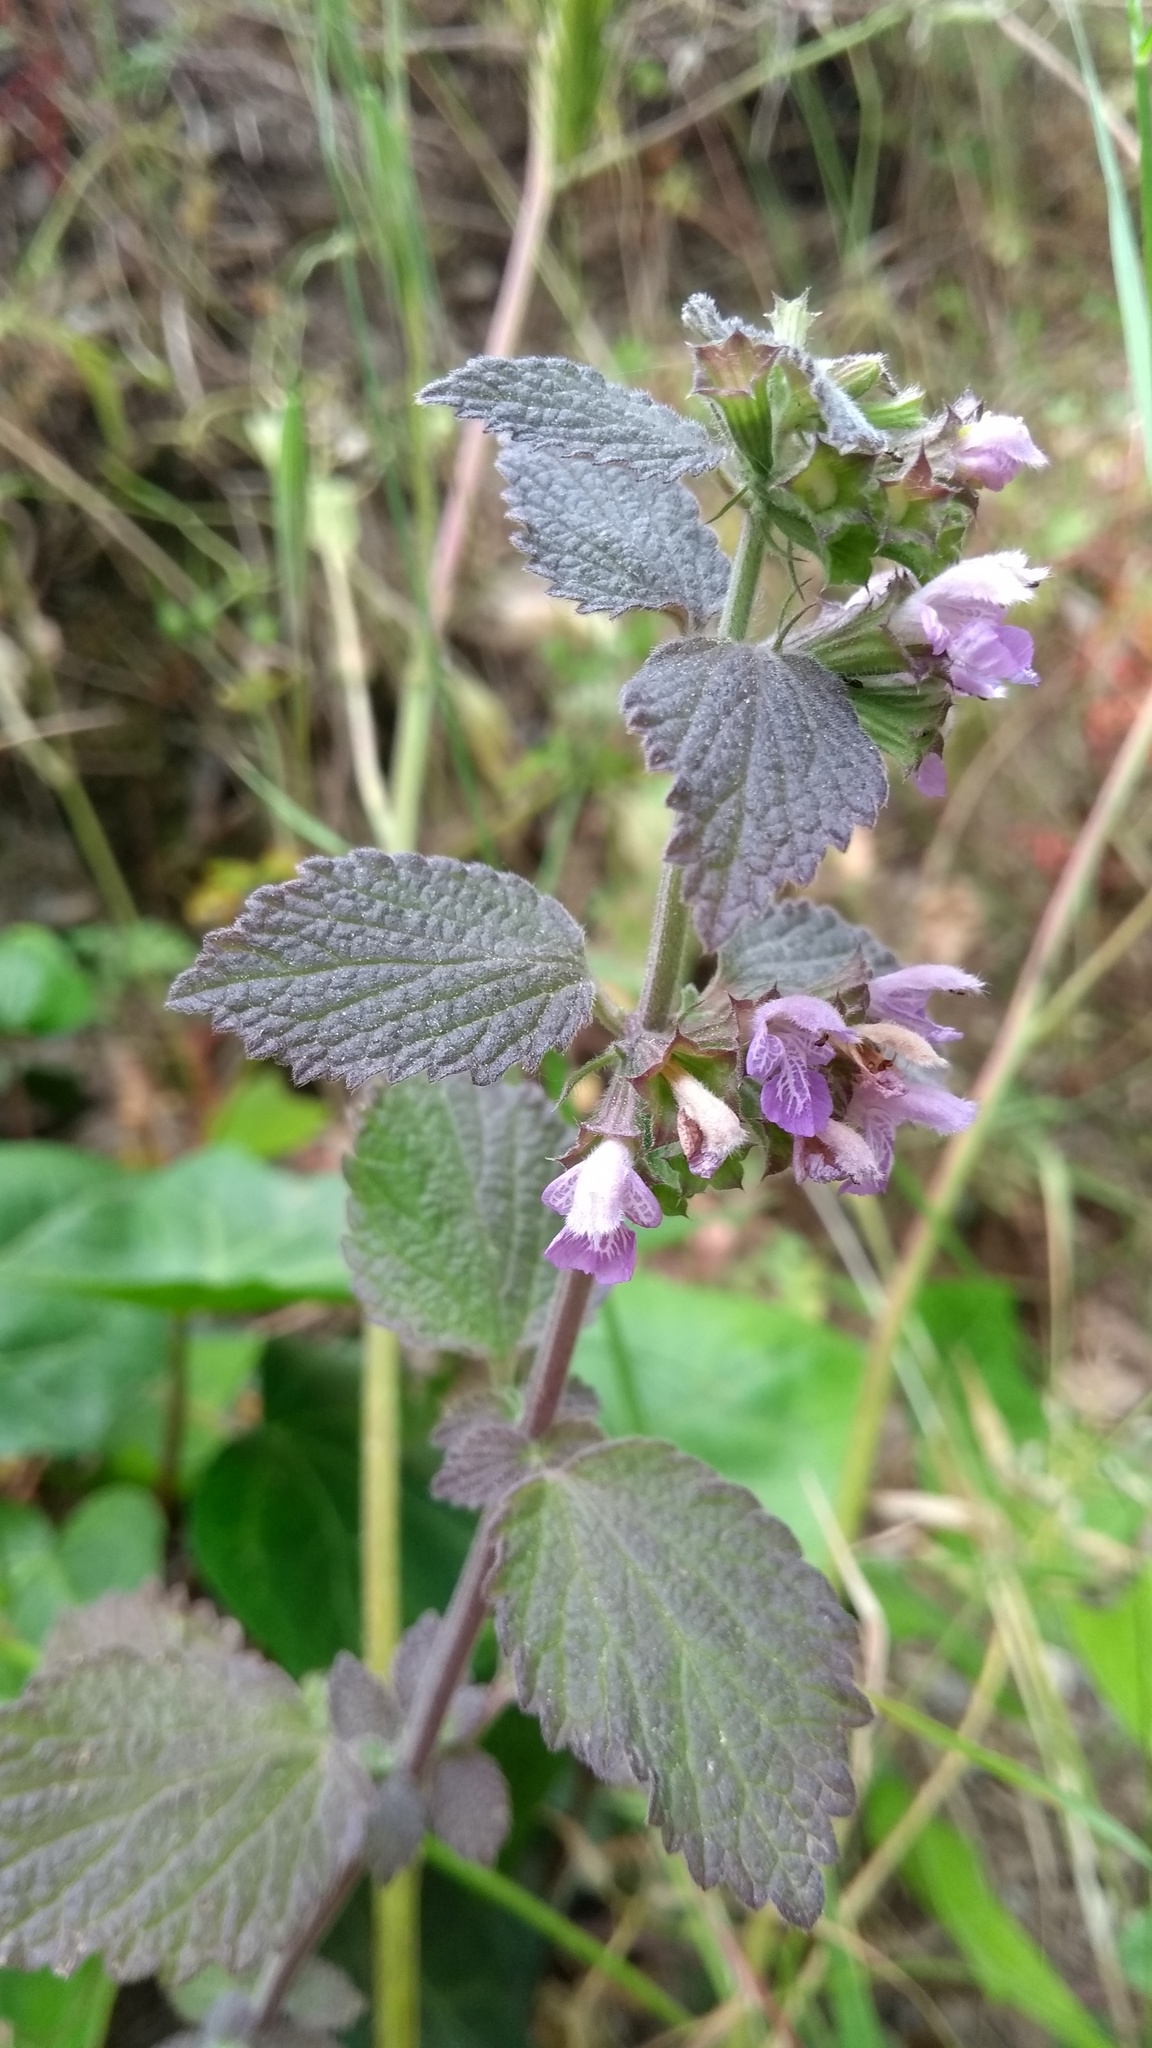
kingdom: Plantae
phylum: Tracheophyta
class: Magnoliopsida
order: Lamiales
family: Lamiaceae
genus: Ballota
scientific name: Ballota nigra
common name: Black horehound
